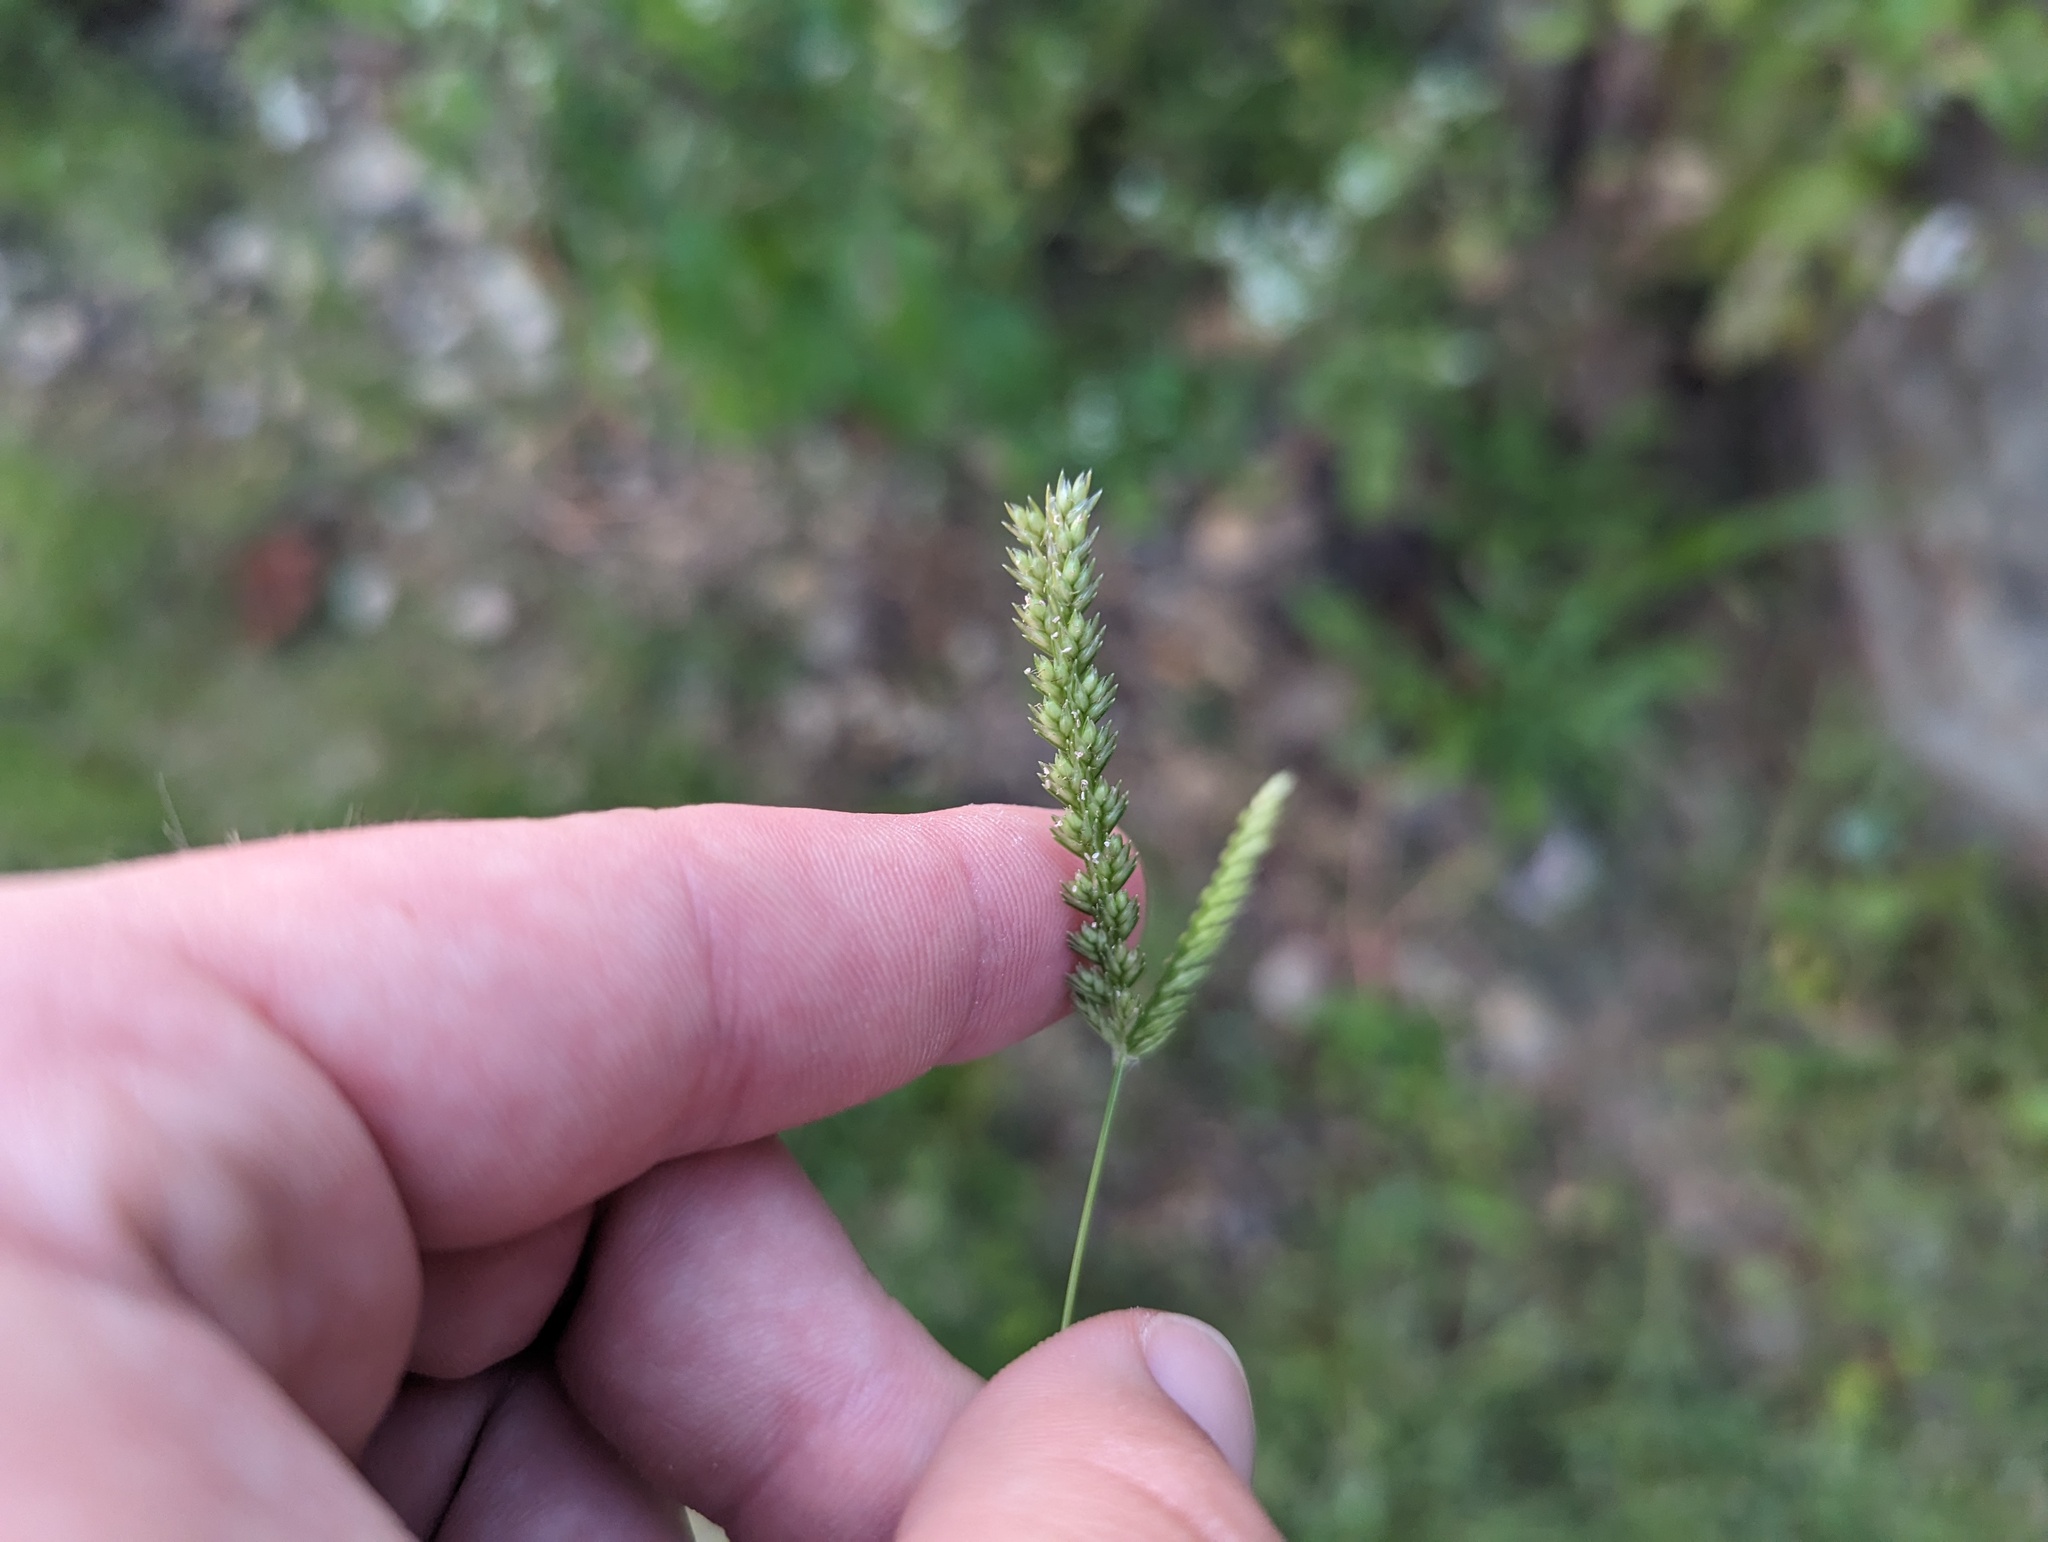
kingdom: Plantae
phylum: Tracheophyta
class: Liliopsida
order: Poales
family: Poaceae
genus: Eleusine
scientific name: Eleusine indica
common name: Yard-grass
